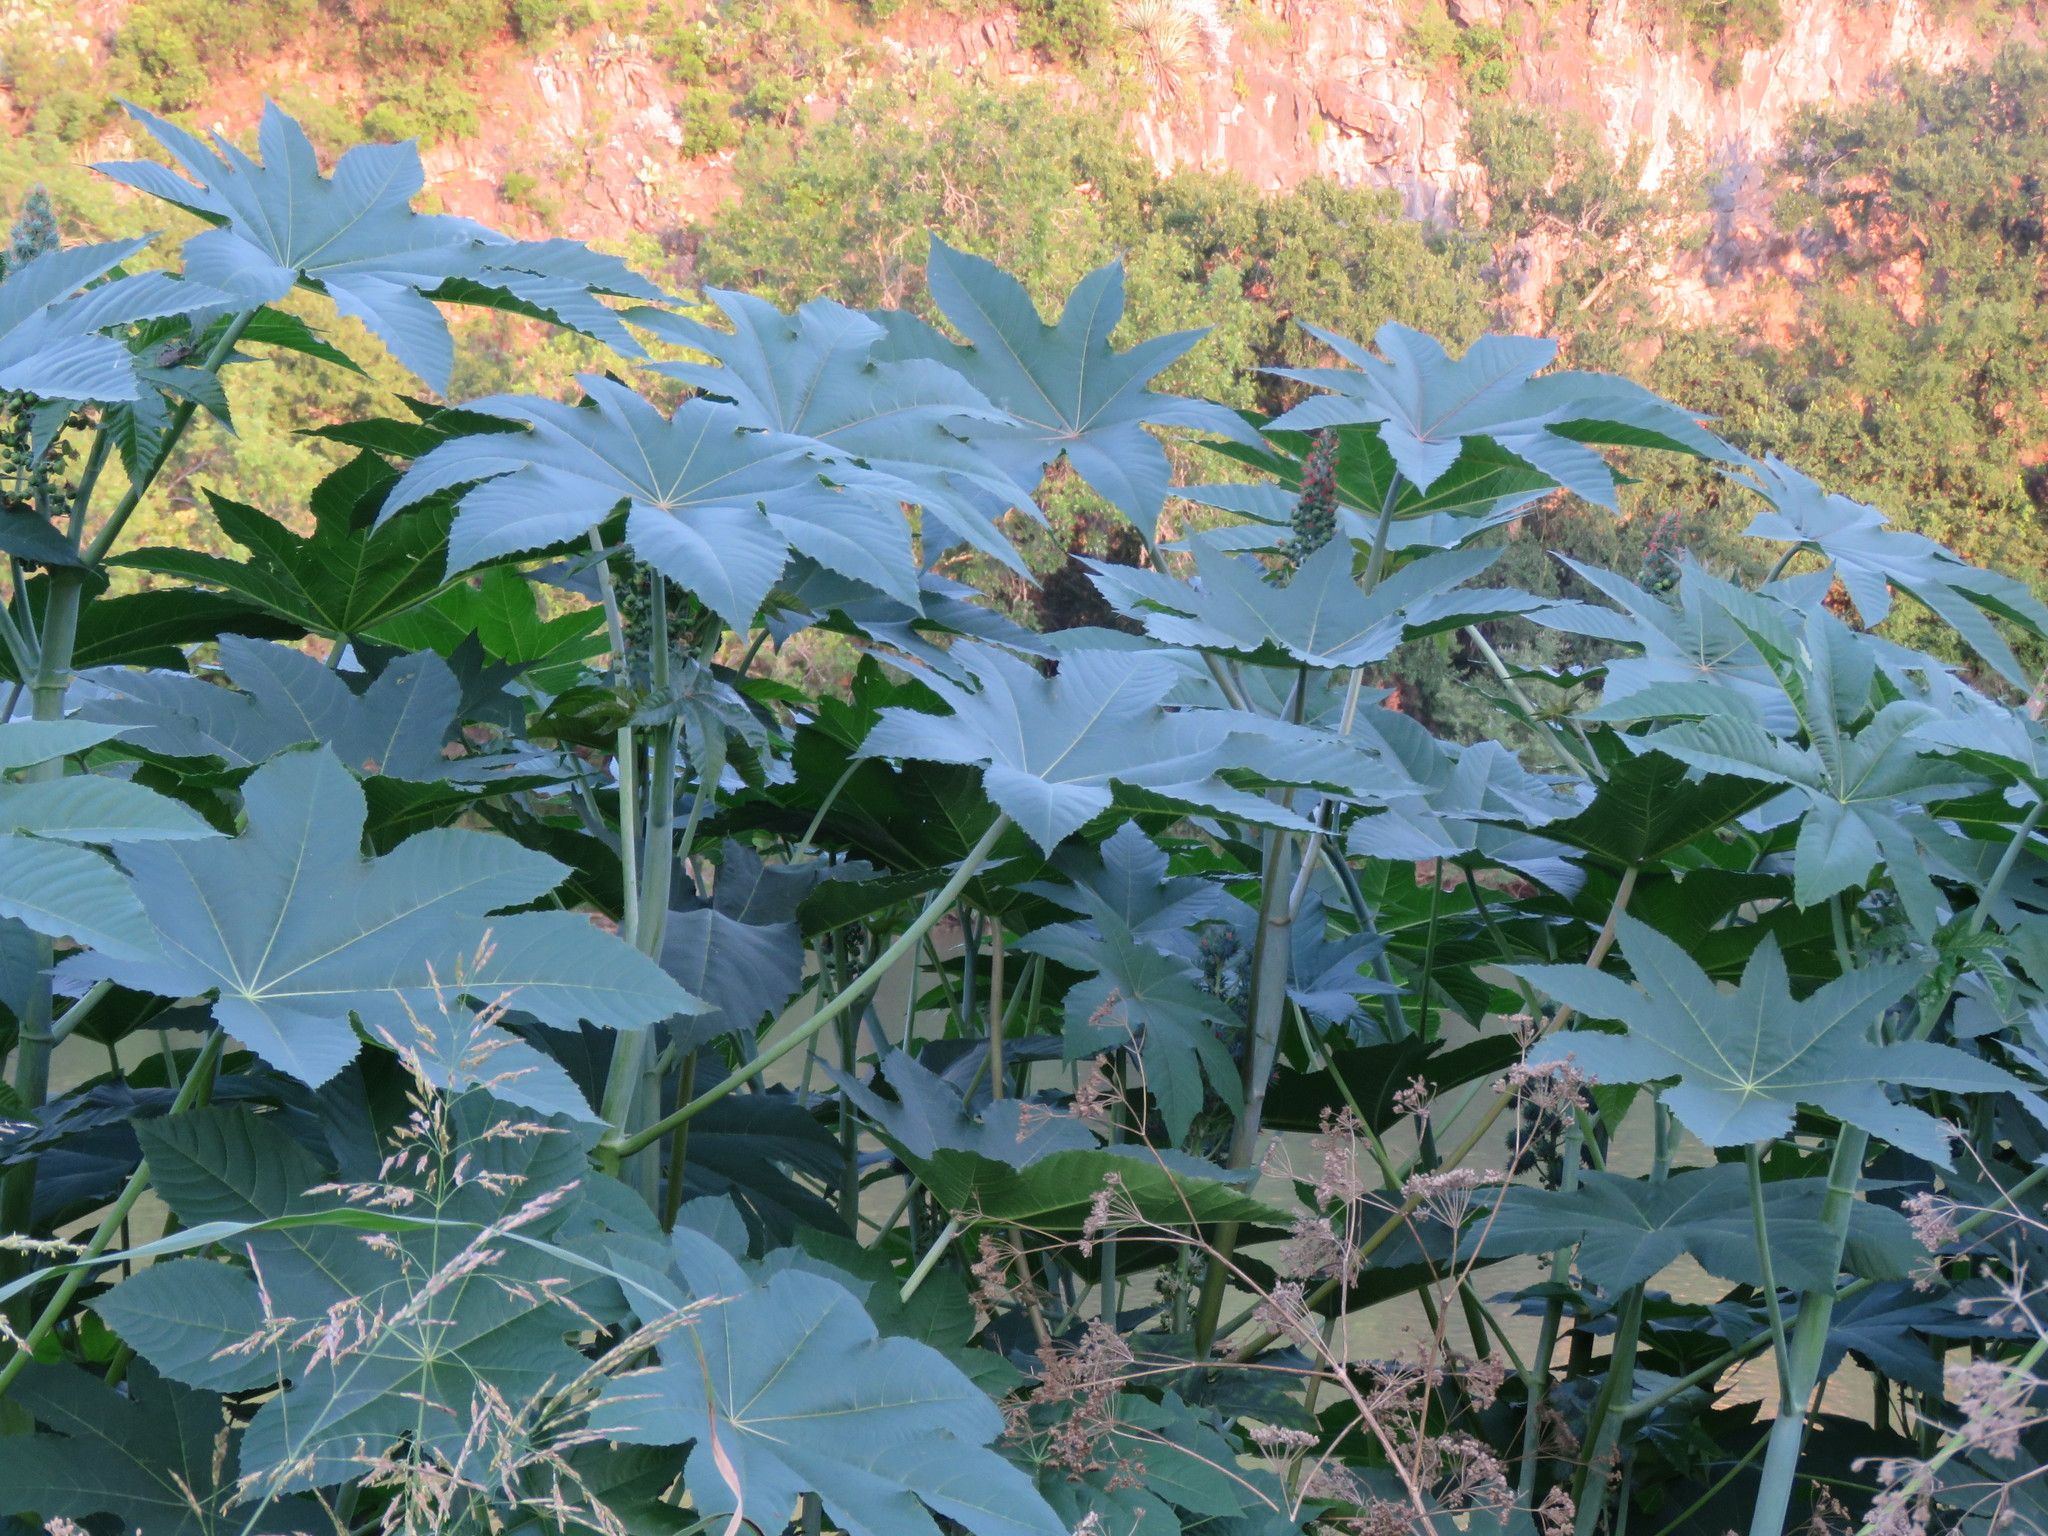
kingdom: Plantae
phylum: Tracheophyta
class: Magnoliopsida
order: Malpighiales
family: Euphorbiaceae
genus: Ricinus
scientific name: Ricinus communis
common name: Castor-oil-plant
